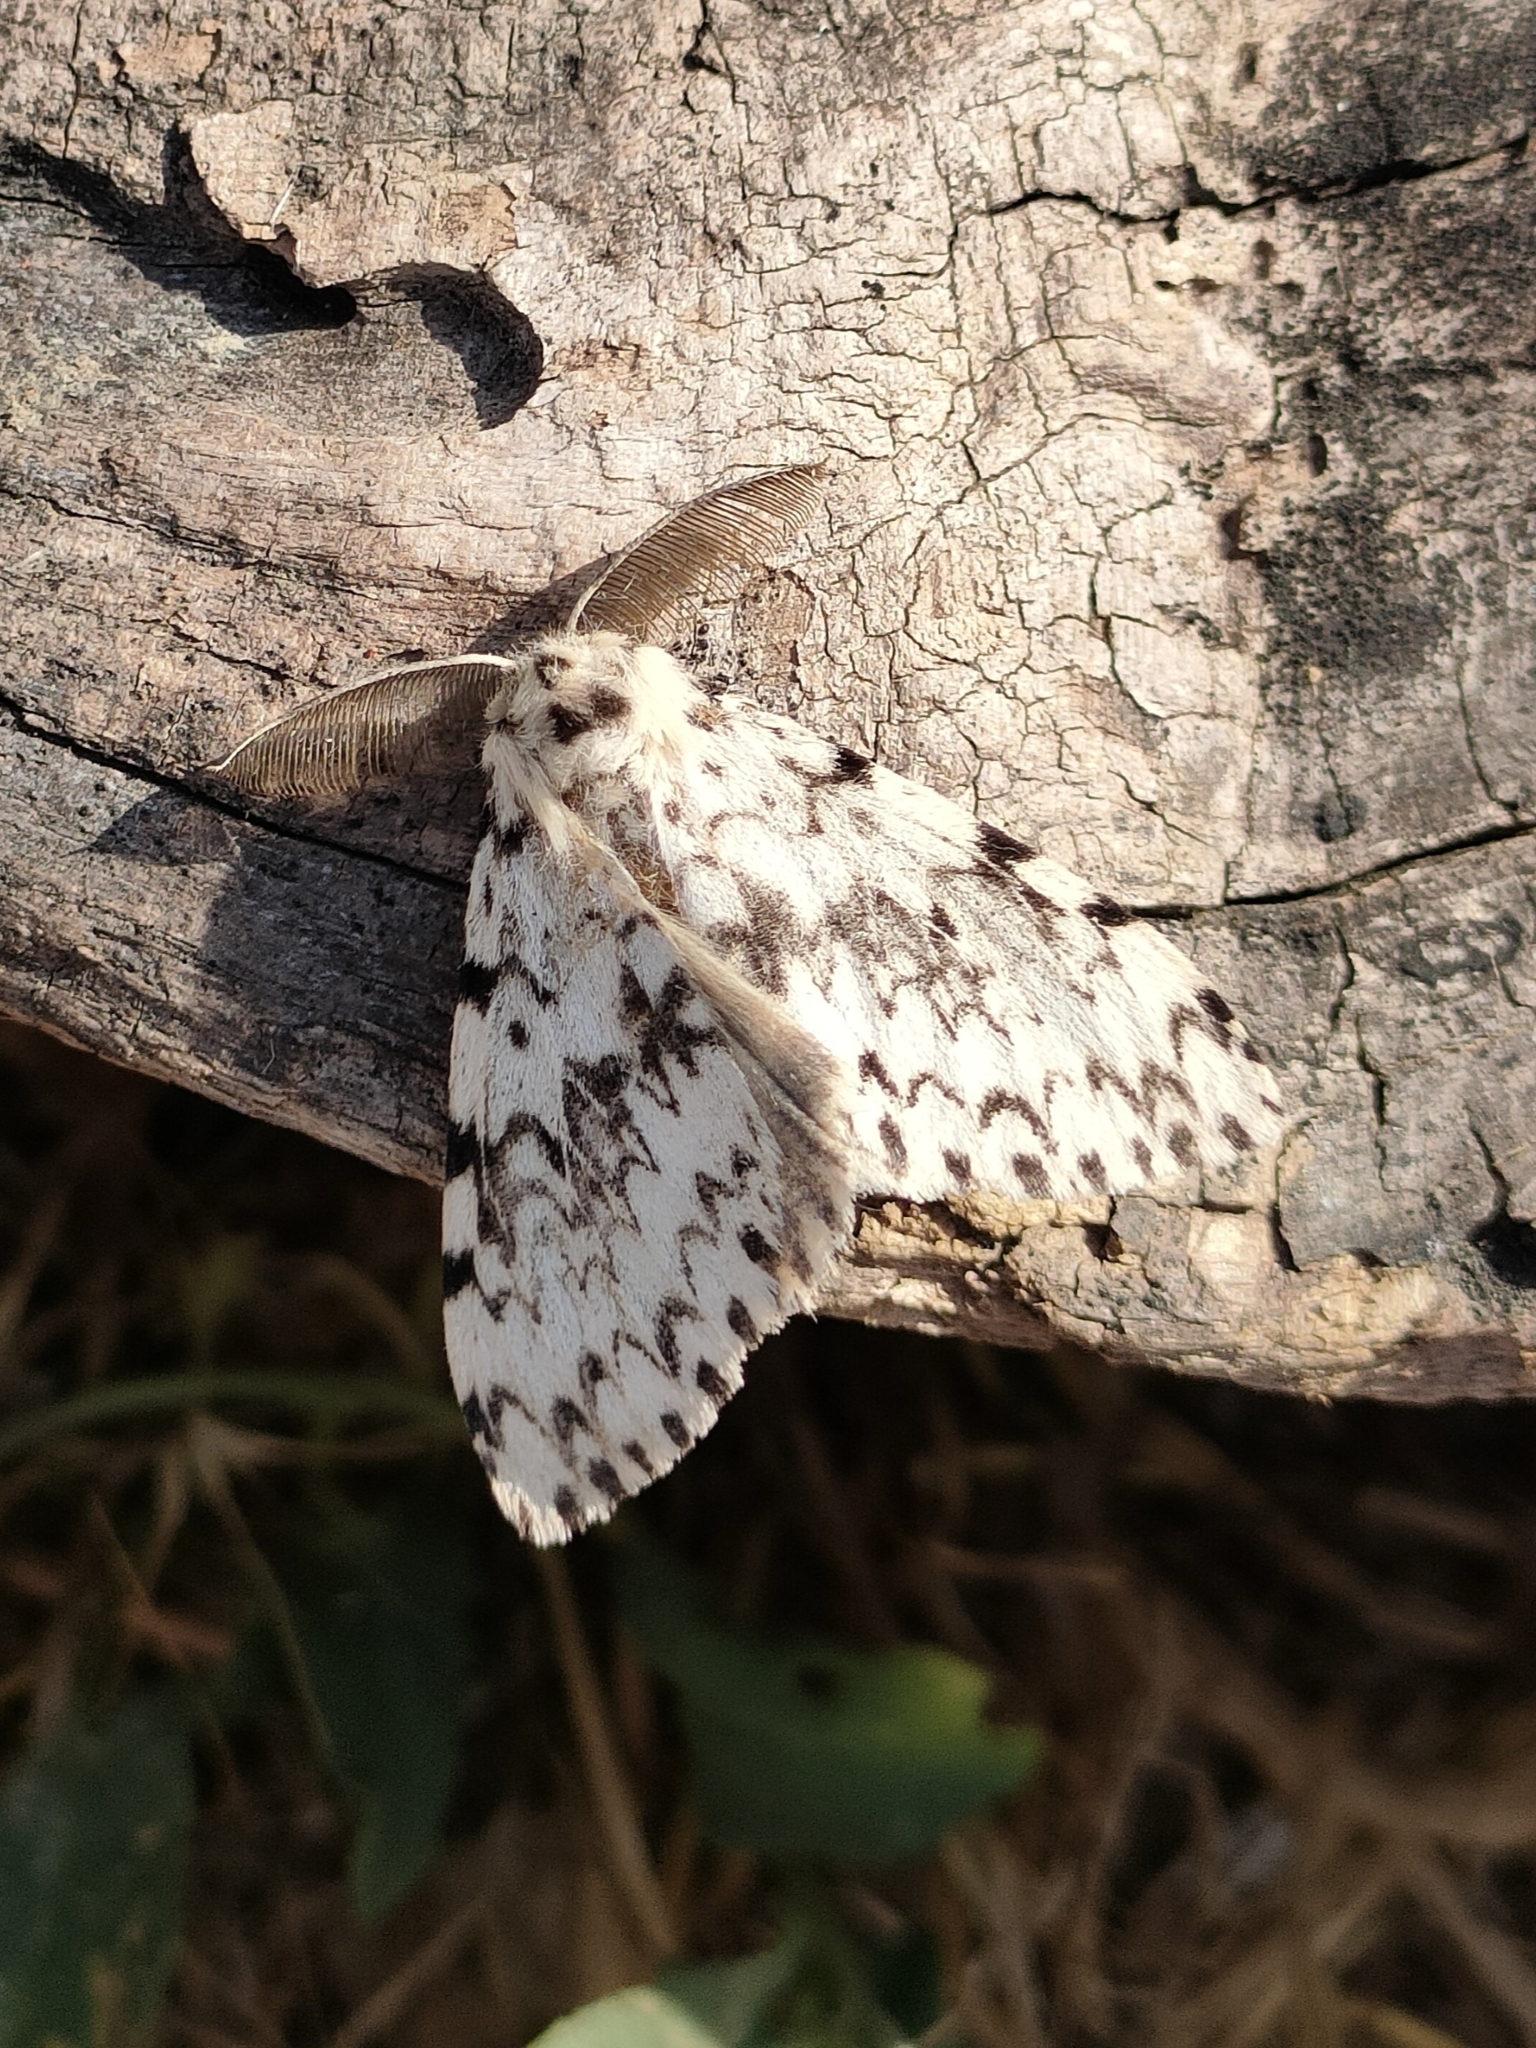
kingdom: Animalia
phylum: Arthropoda
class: Insecta
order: Lepidoptera
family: Erebidae
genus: Lymantria
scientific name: Lymantria monacha
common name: Black arches
